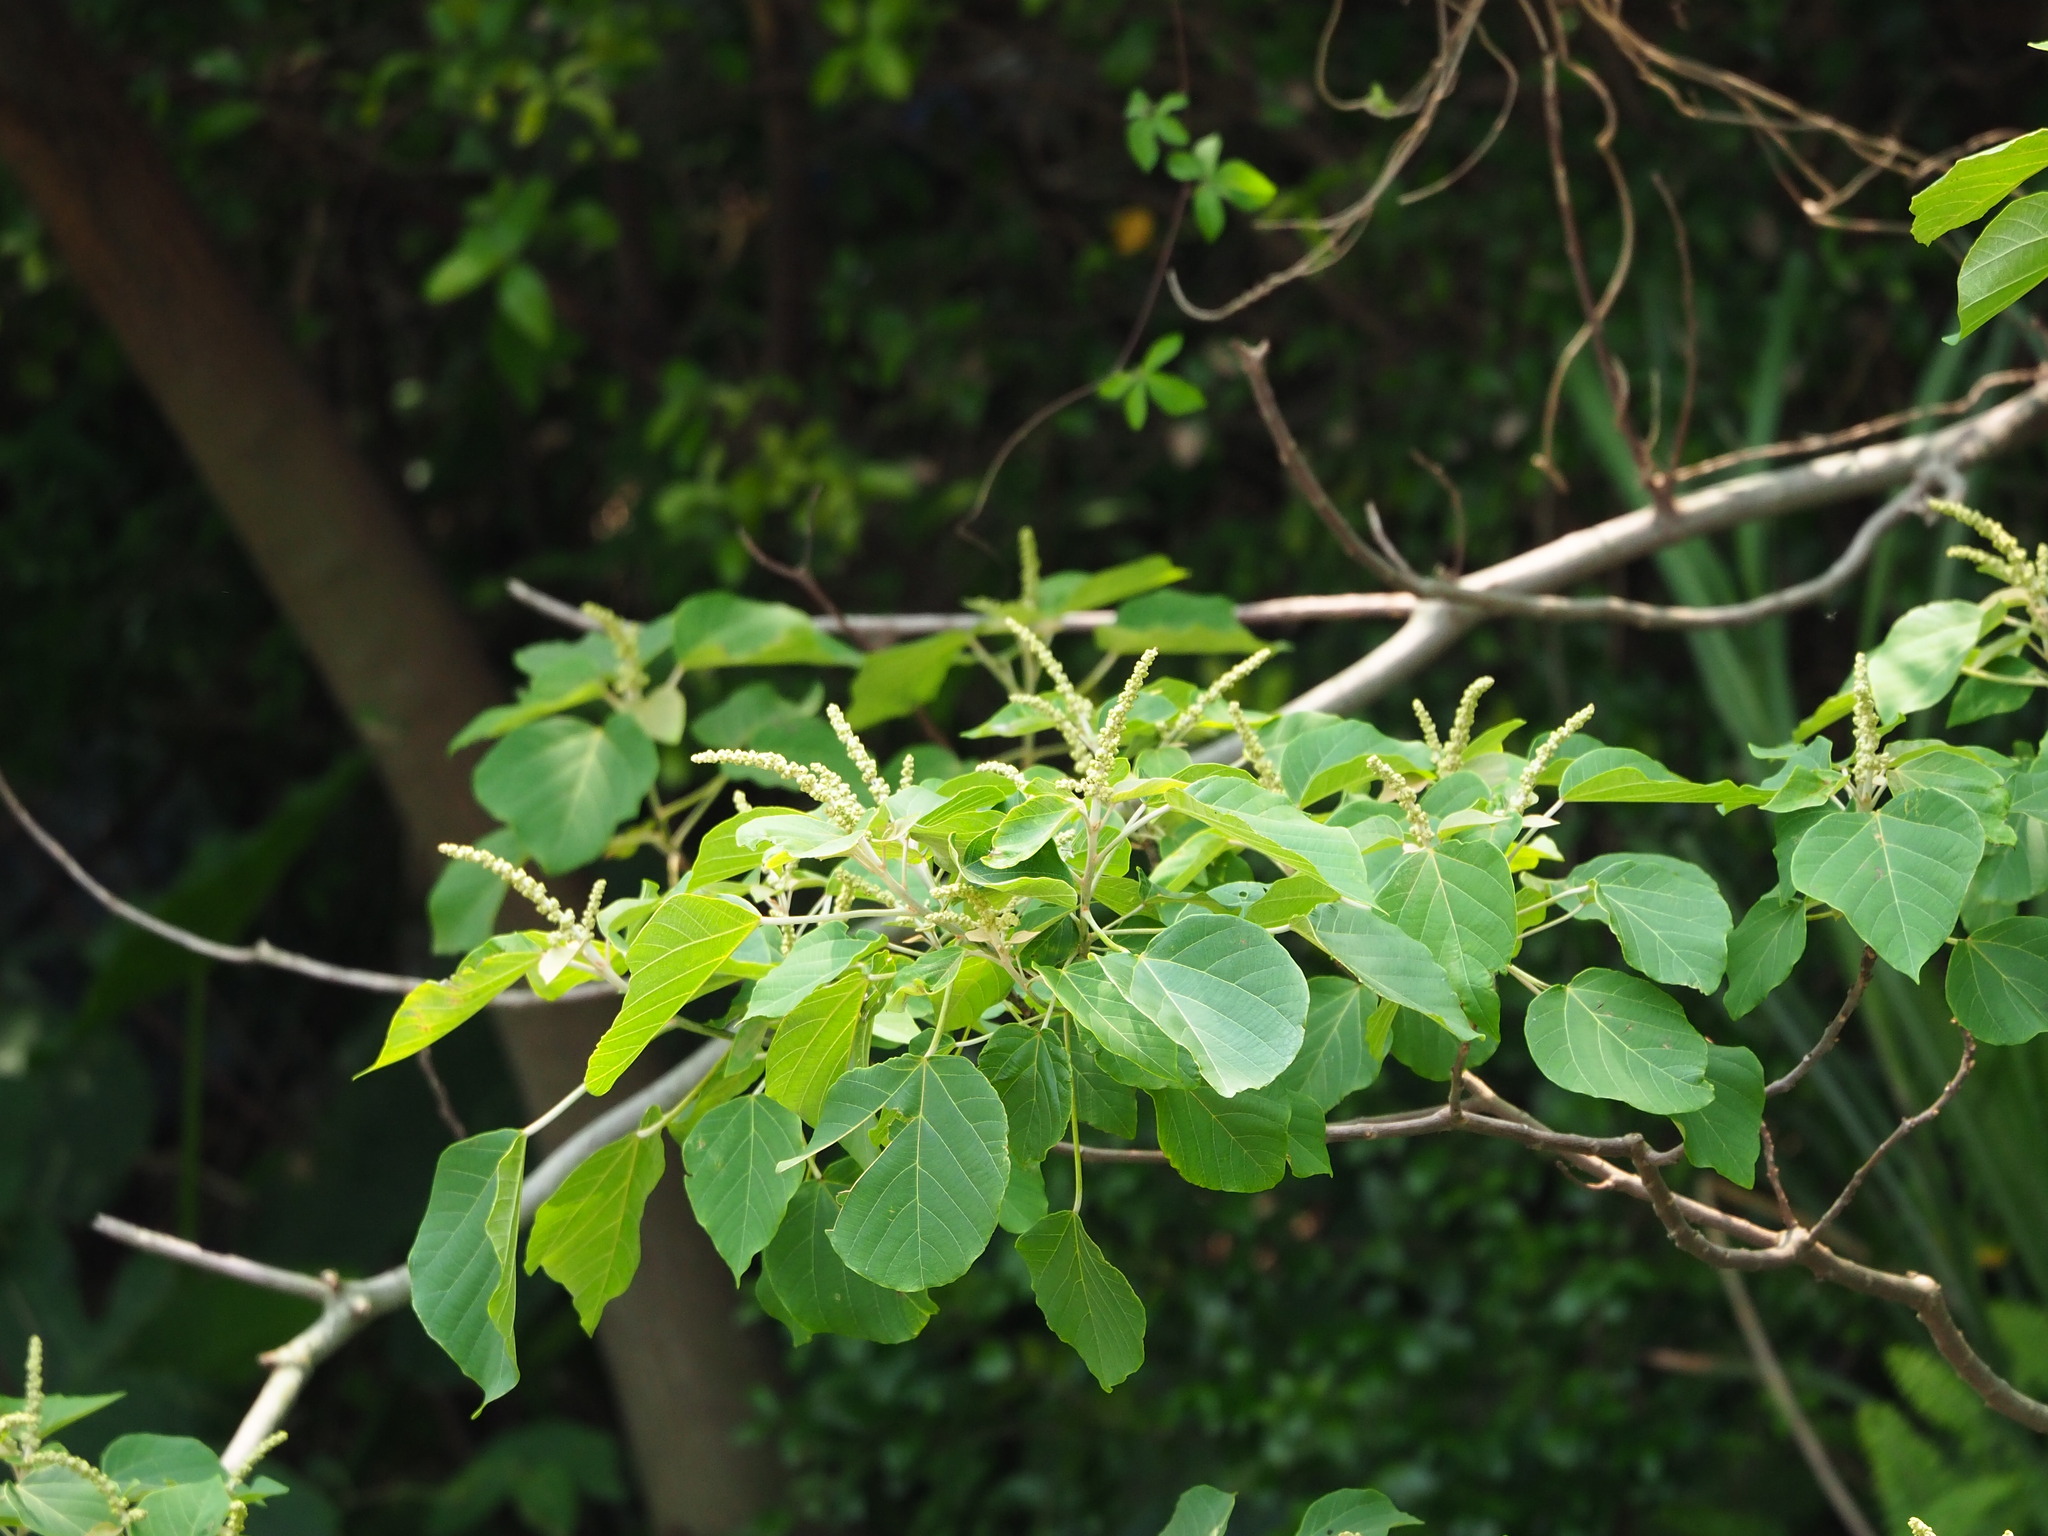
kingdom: Plantae
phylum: Tracheophyta
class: Magnoliopsida
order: Malpighiales
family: Euphorbiaceae
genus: Mallotus
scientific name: Mallotus japonicus
